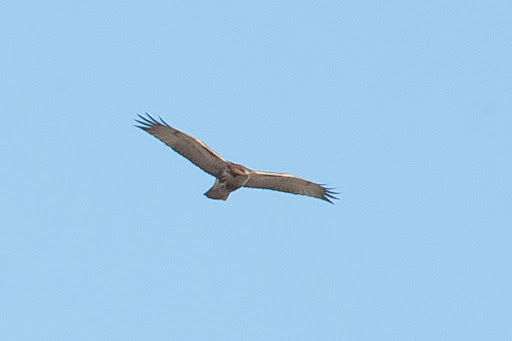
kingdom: Animalia
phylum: Chordata
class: Aves
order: Accipitriformes
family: Accipitridae
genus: Buteo
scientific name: Buteo jamaicensis
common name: Red-tailed hawk
